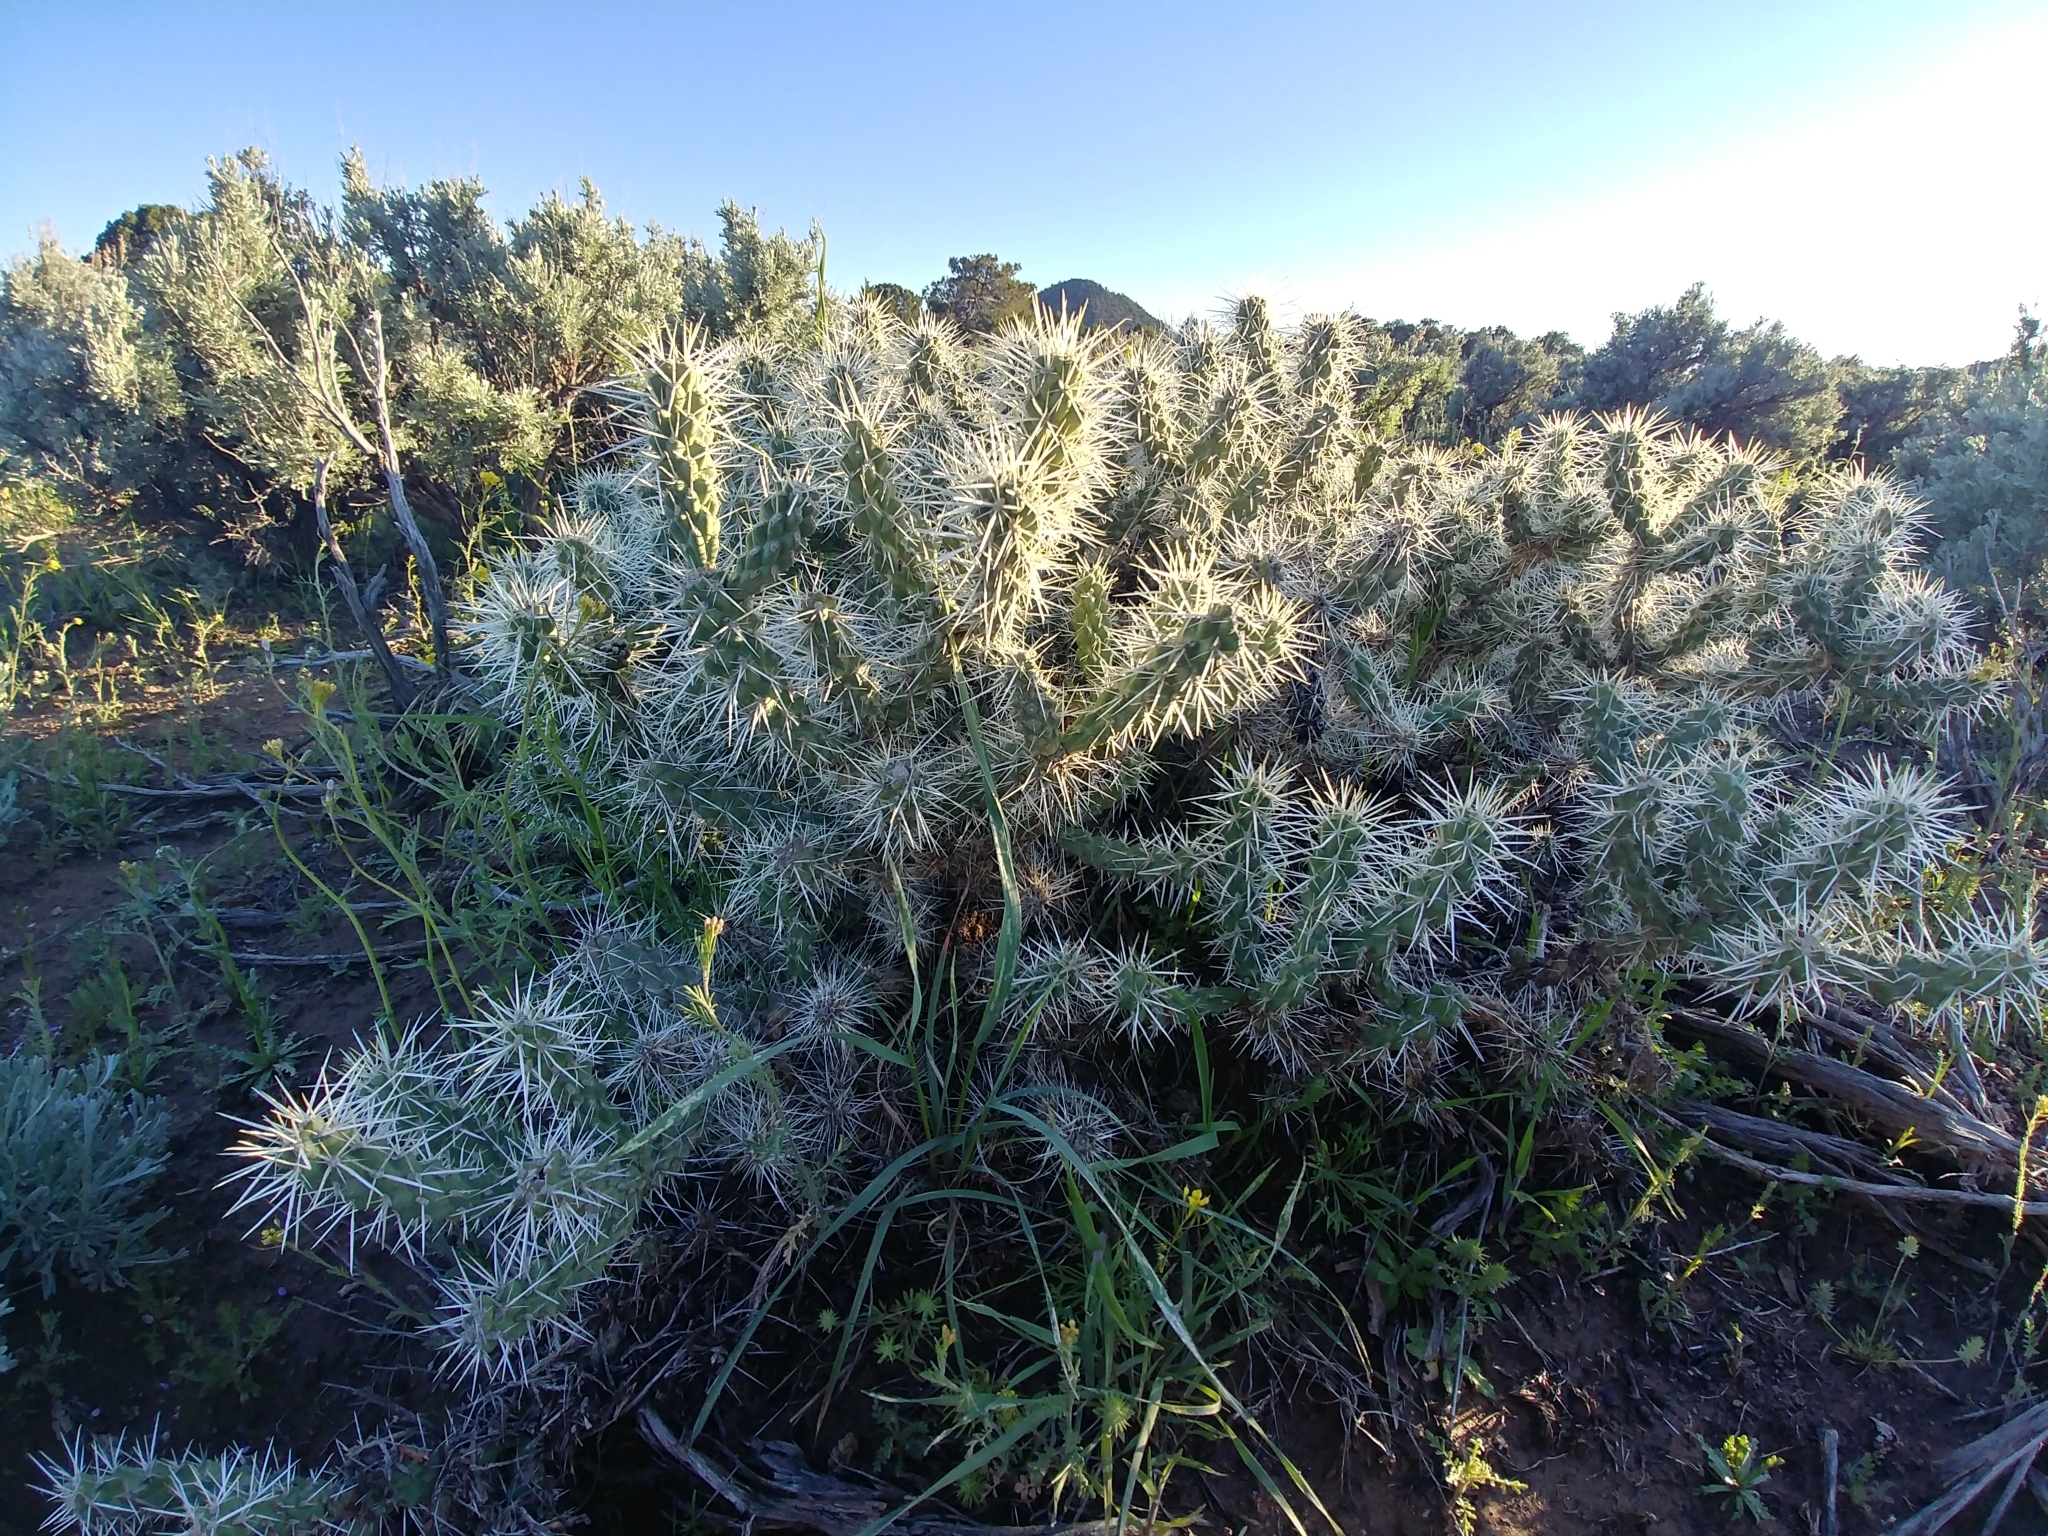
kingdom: Plantae
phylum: Tracheophyta
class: Magnoliopsida
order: Caryophyllales
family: Cactaceae
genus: Cylindropuntia
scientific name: Cylindropuntia whipplei
